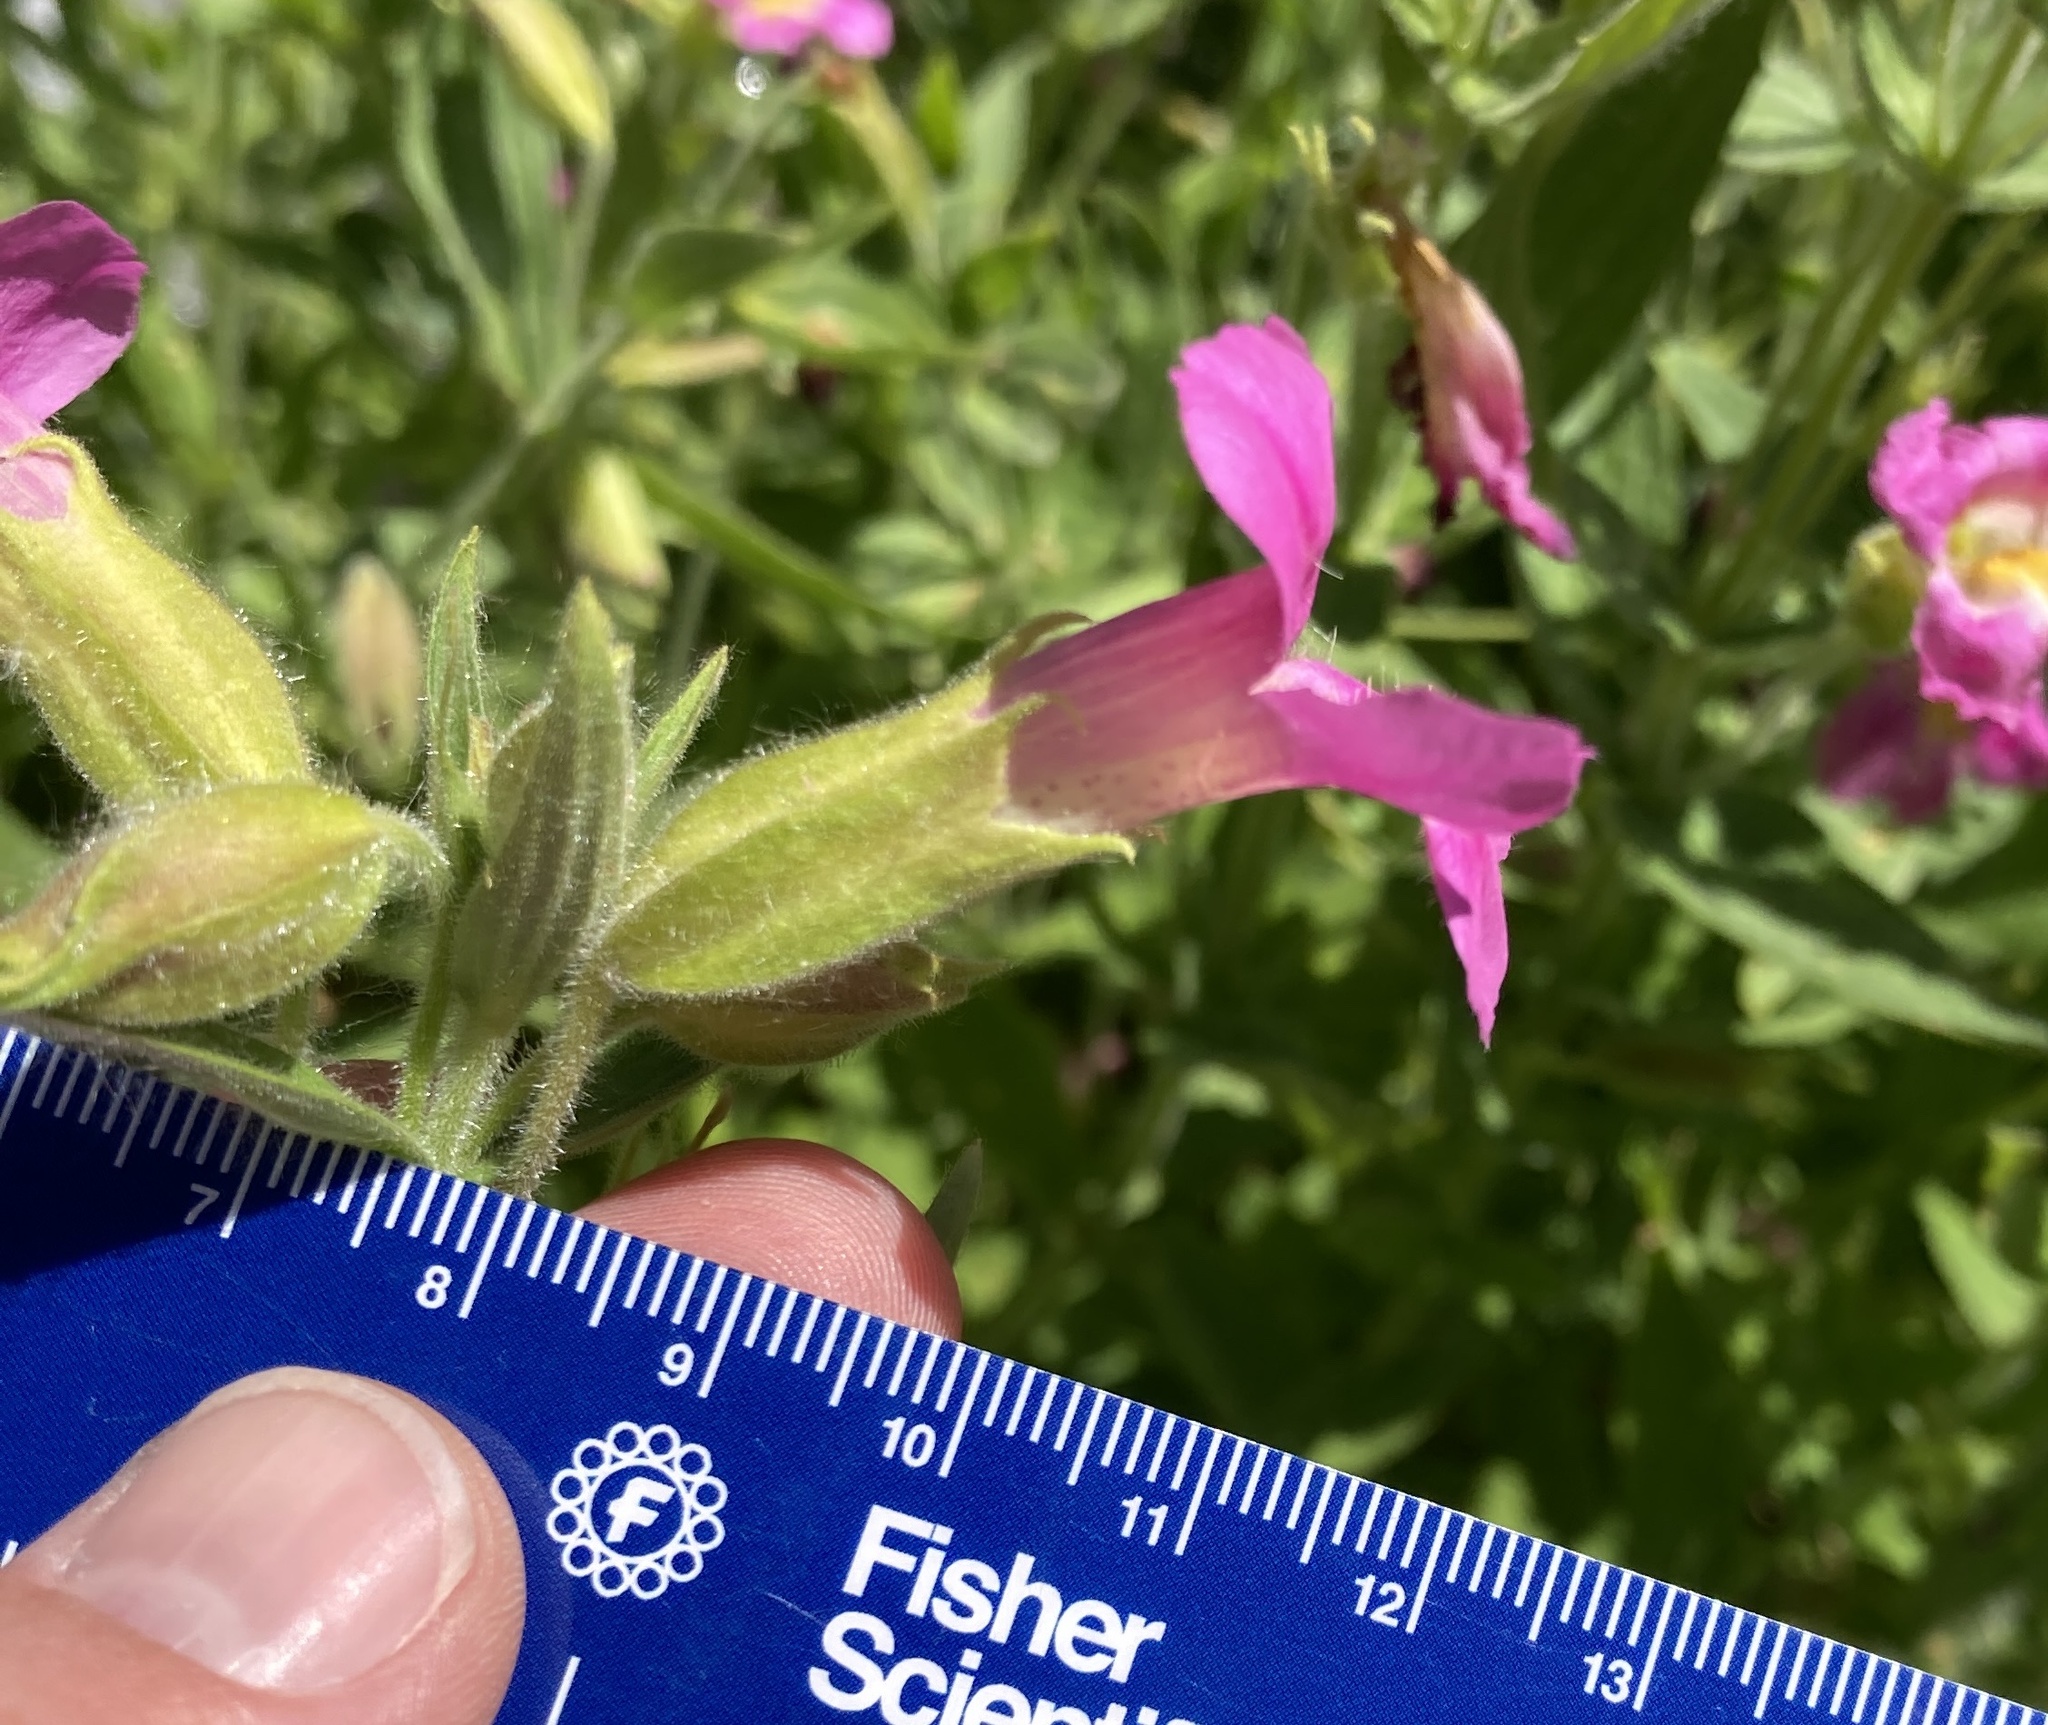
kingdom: Plantae
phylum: Tracheophyta
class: Magnoliopsida
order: Lamiales
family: Phrymaceae
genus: Erythranthe
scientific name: Erythranthe lewisii
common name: Lewis's monkey-flower
